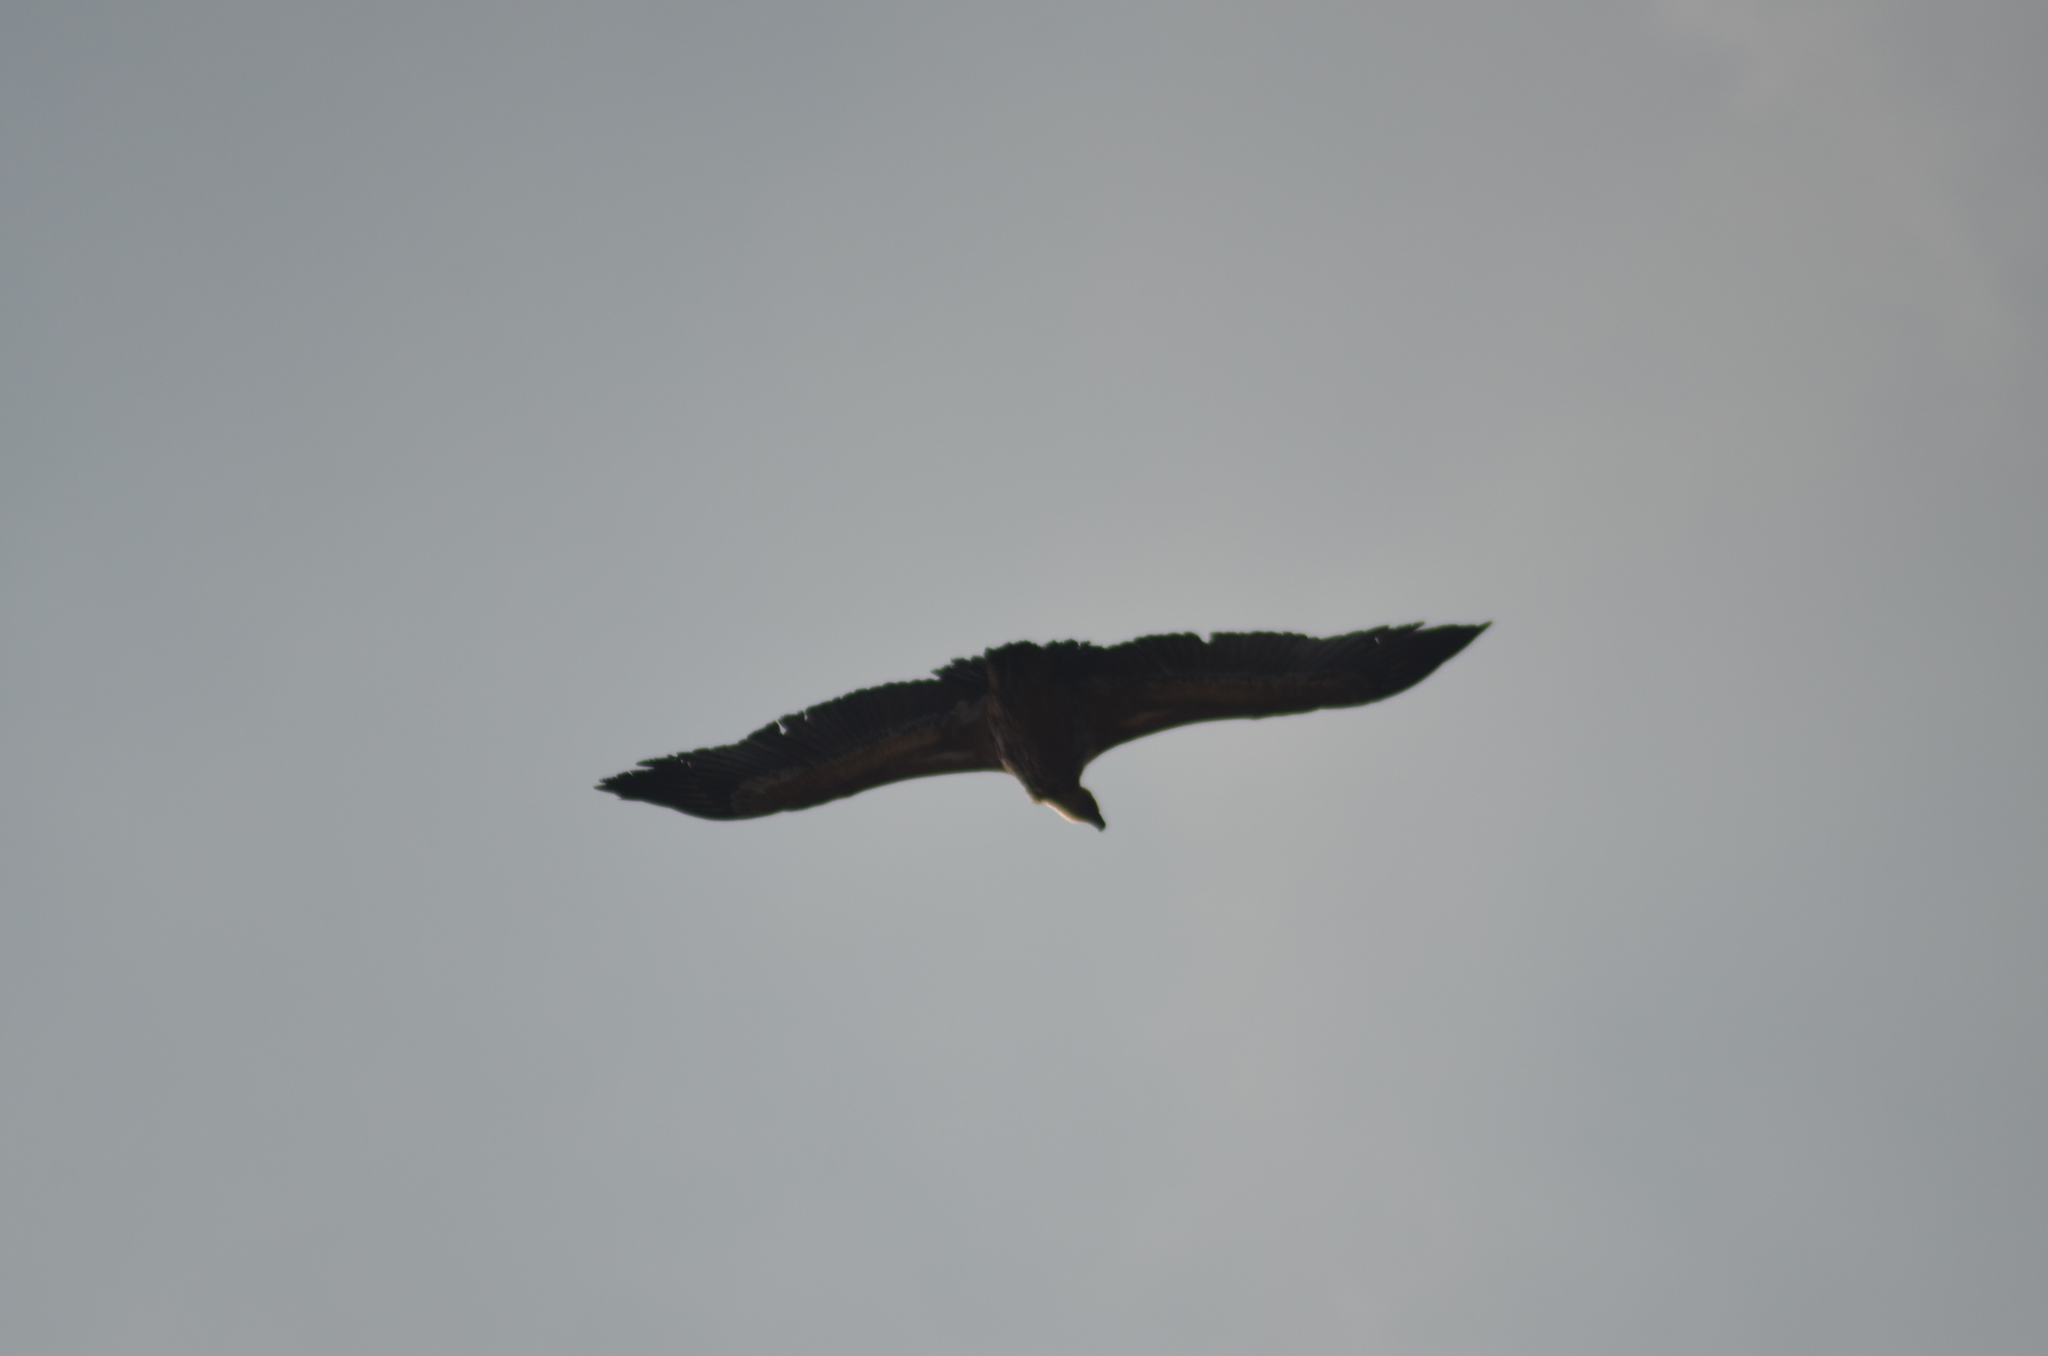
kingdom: Animalia
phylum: Chordata
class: Aves
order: Accipitriformes
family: Accipitridae
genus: Gyps
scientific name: Gyps fulvus
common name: Griffon vulture
